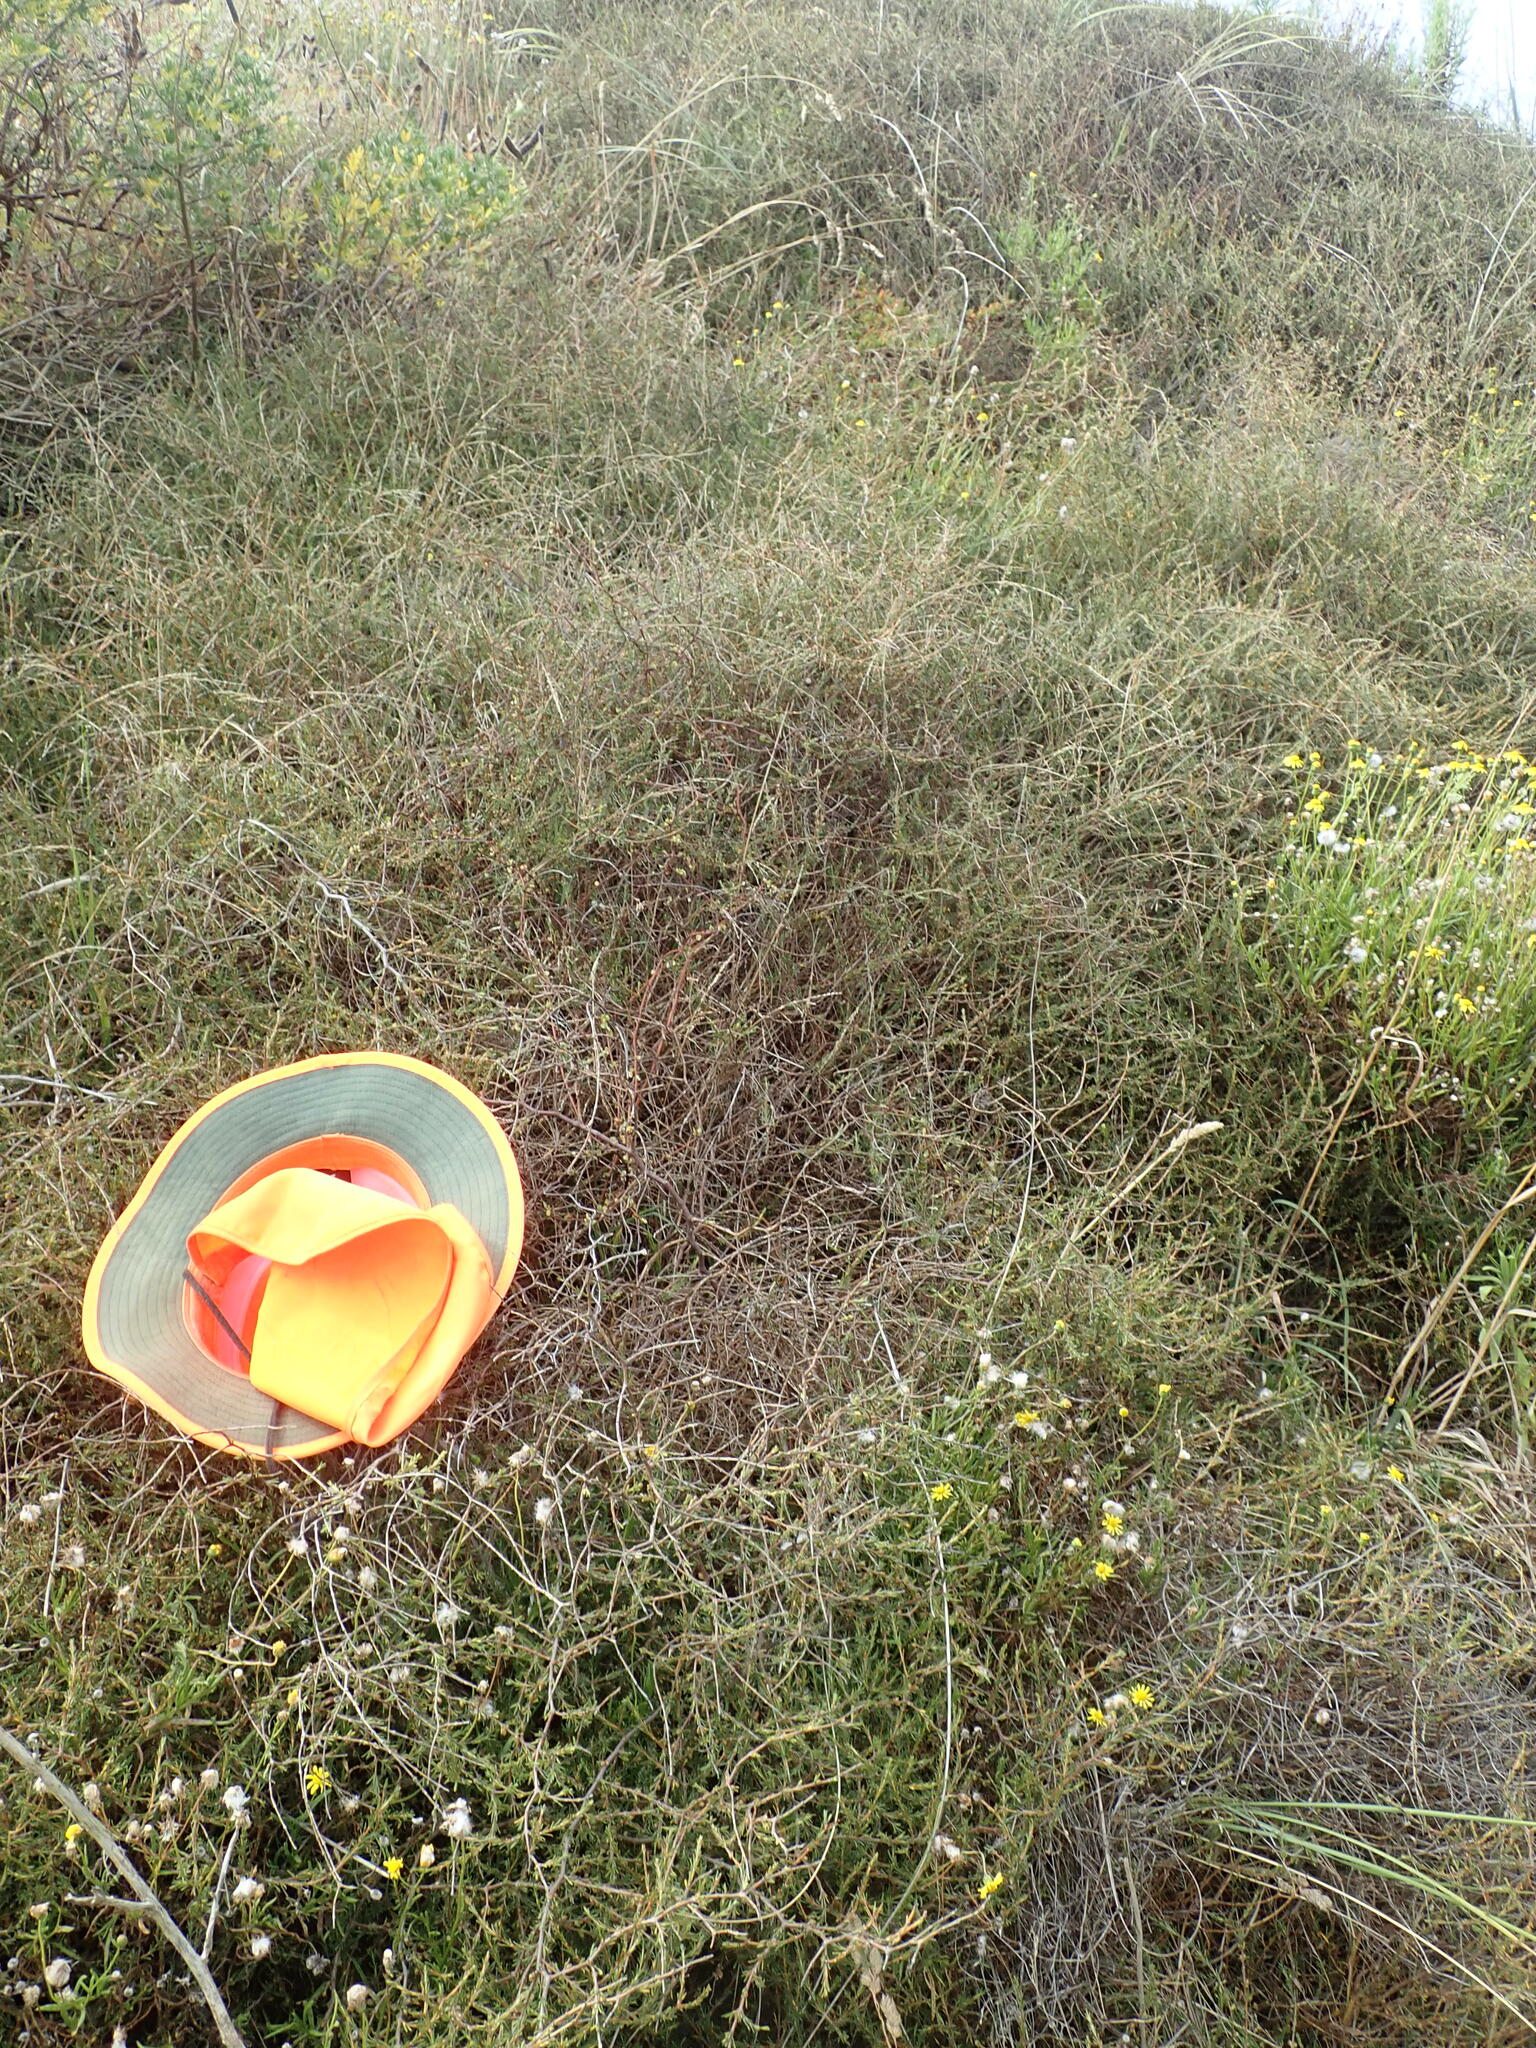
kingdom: Plantae
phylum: Tracheophyta
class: Magnoliopsida
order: Gentianales
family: Rubiaceae
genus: Coprosma
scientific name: Coprosma acerosa
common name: Sand coprosma
